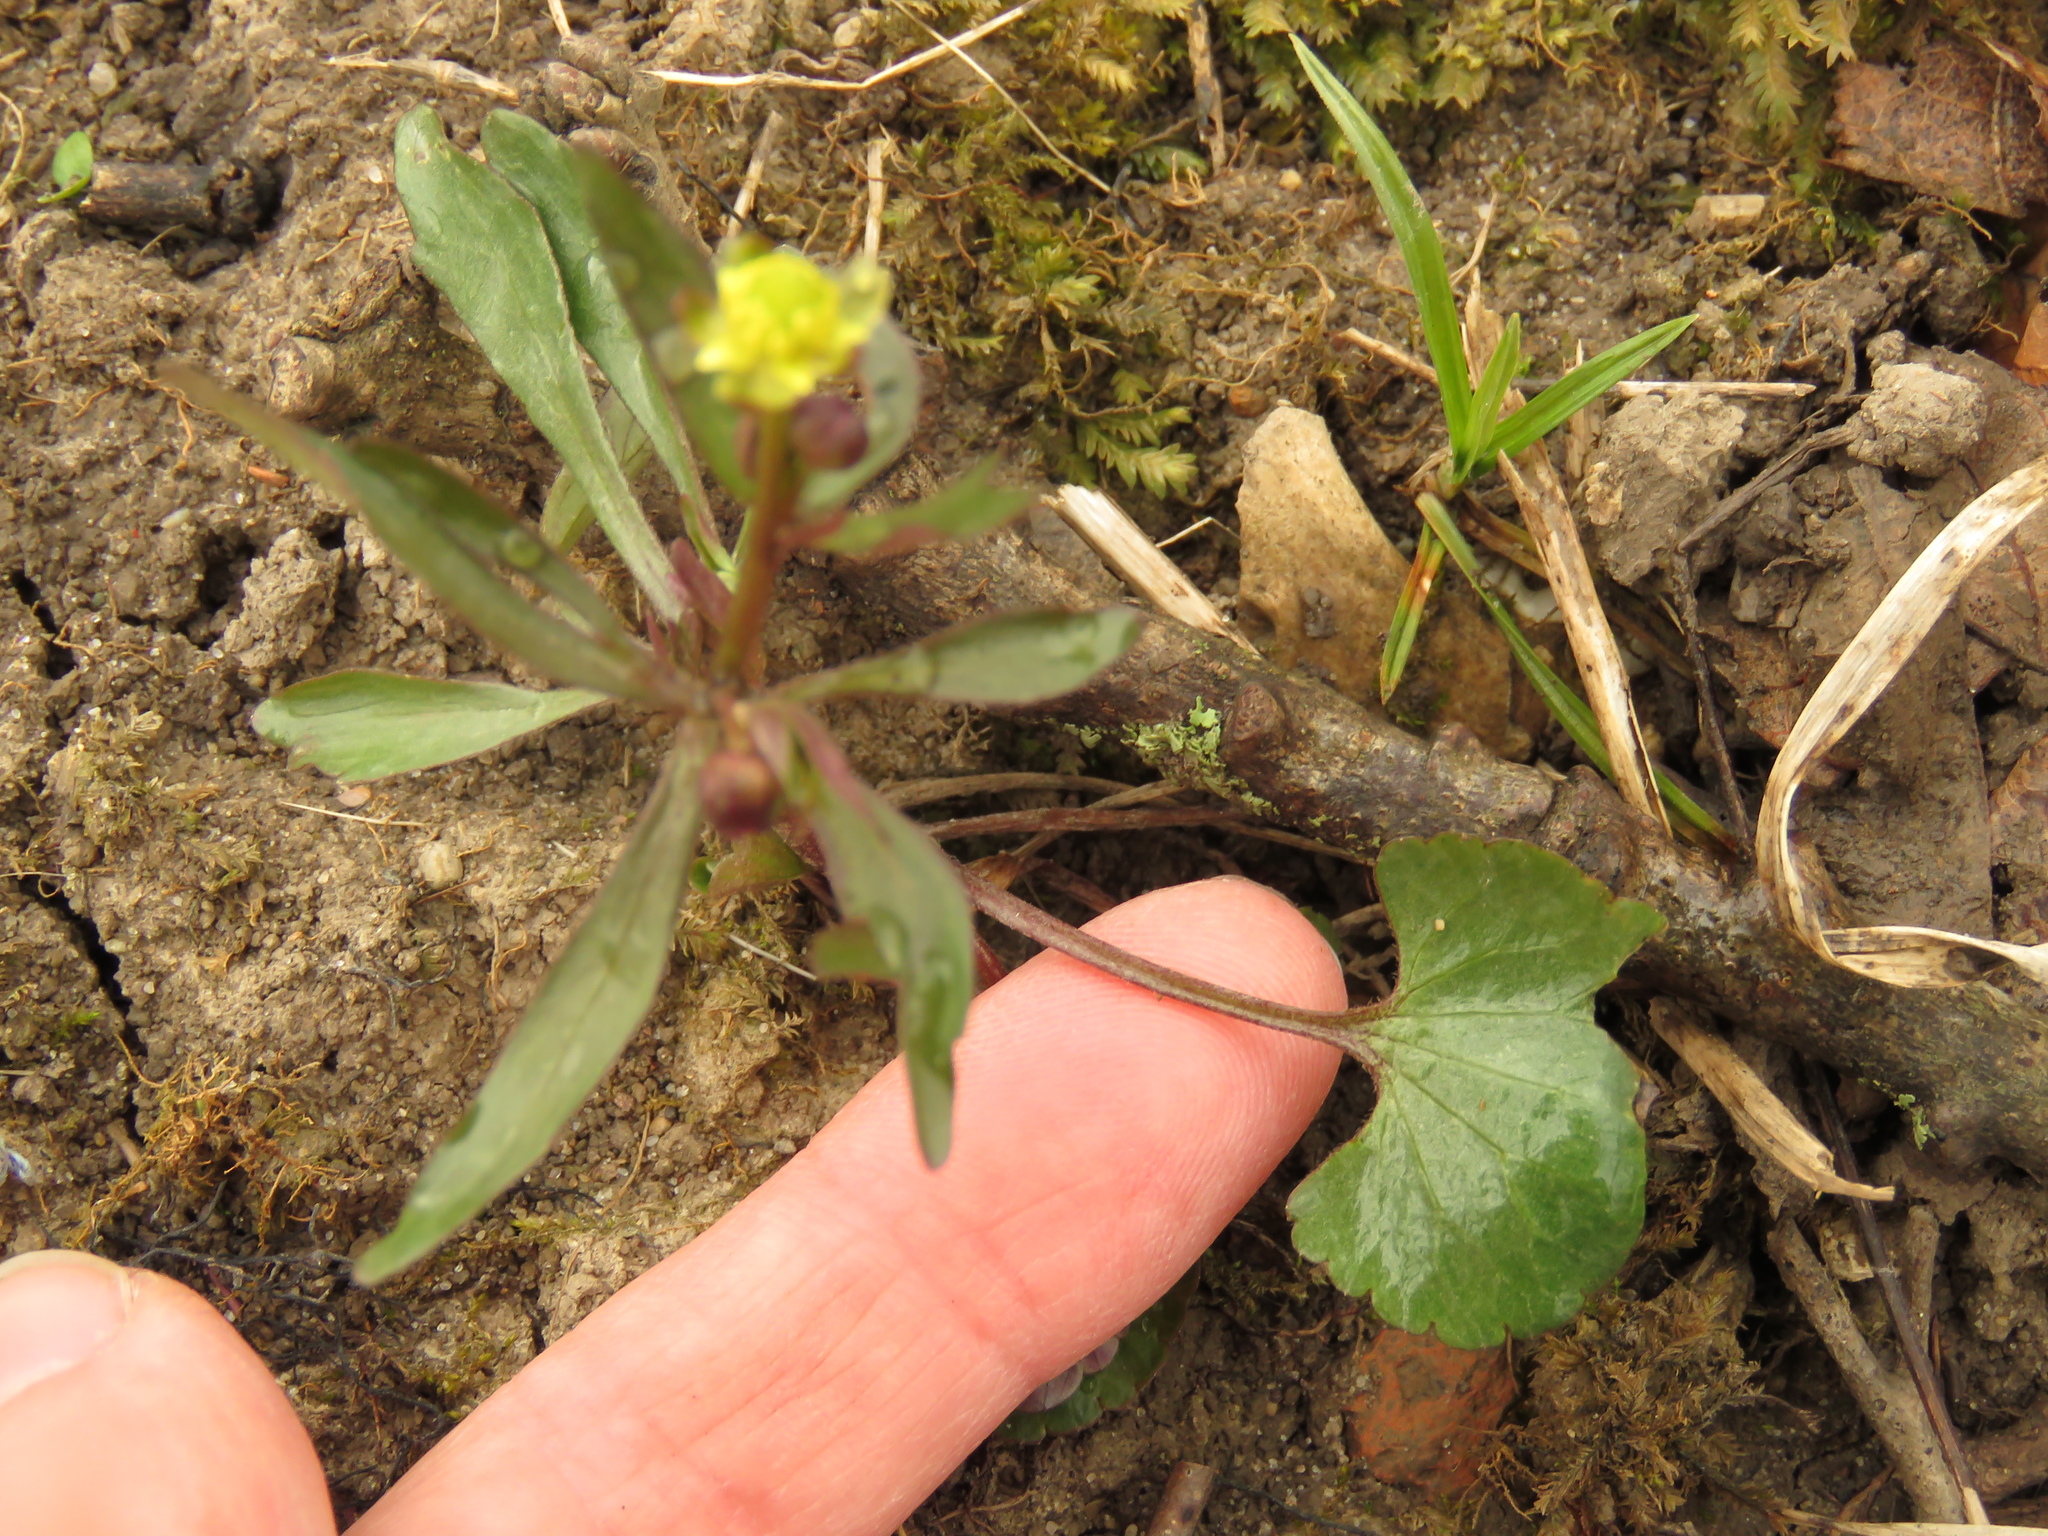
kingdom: Plantae
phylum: Tracheophyta
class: Magnoliopsida
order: Ranunculales
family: Ranunculaceae
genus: Ranunculus
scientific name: Ranunculus abortivus
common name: Early wood buttercup
